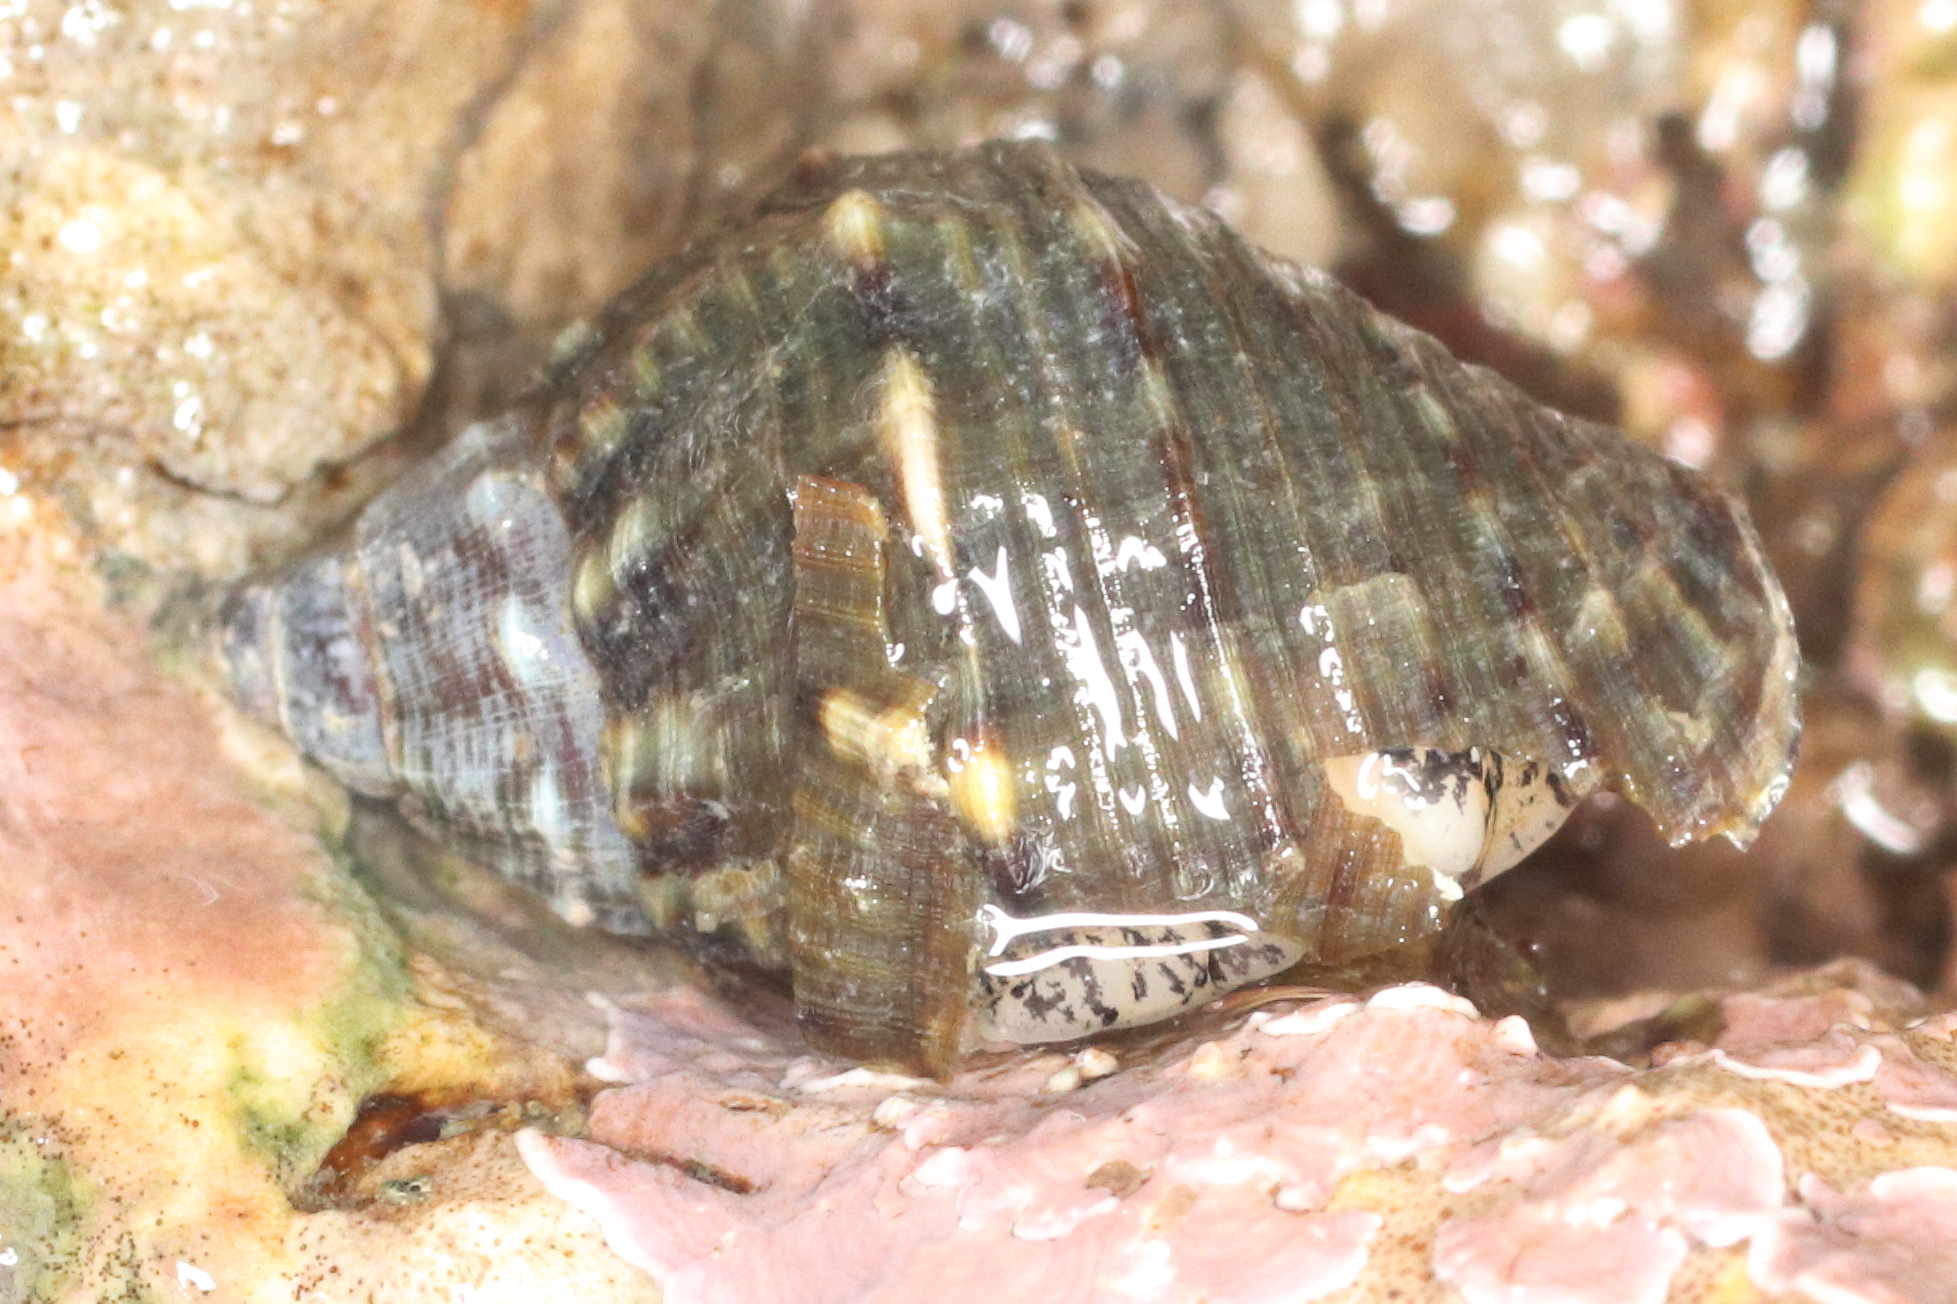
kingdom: Animalia
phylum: Mollusca
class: Gastropoda
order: Neogastropoda
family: Buccinidae
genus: Buccinum
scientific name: Buccinum baerii
